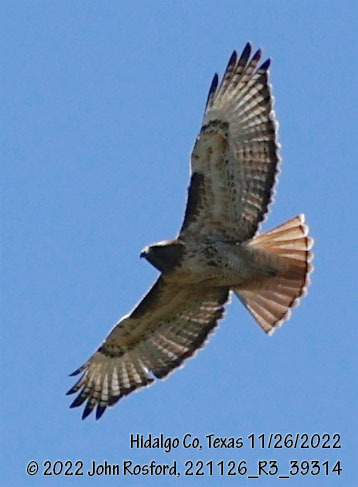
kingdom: Animalia
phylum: Chordata
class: Aves
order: Accipitriformes
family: Accipitridae
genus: Buteo
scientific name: Buteo jamaicensis
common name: Red-tailed hawk
